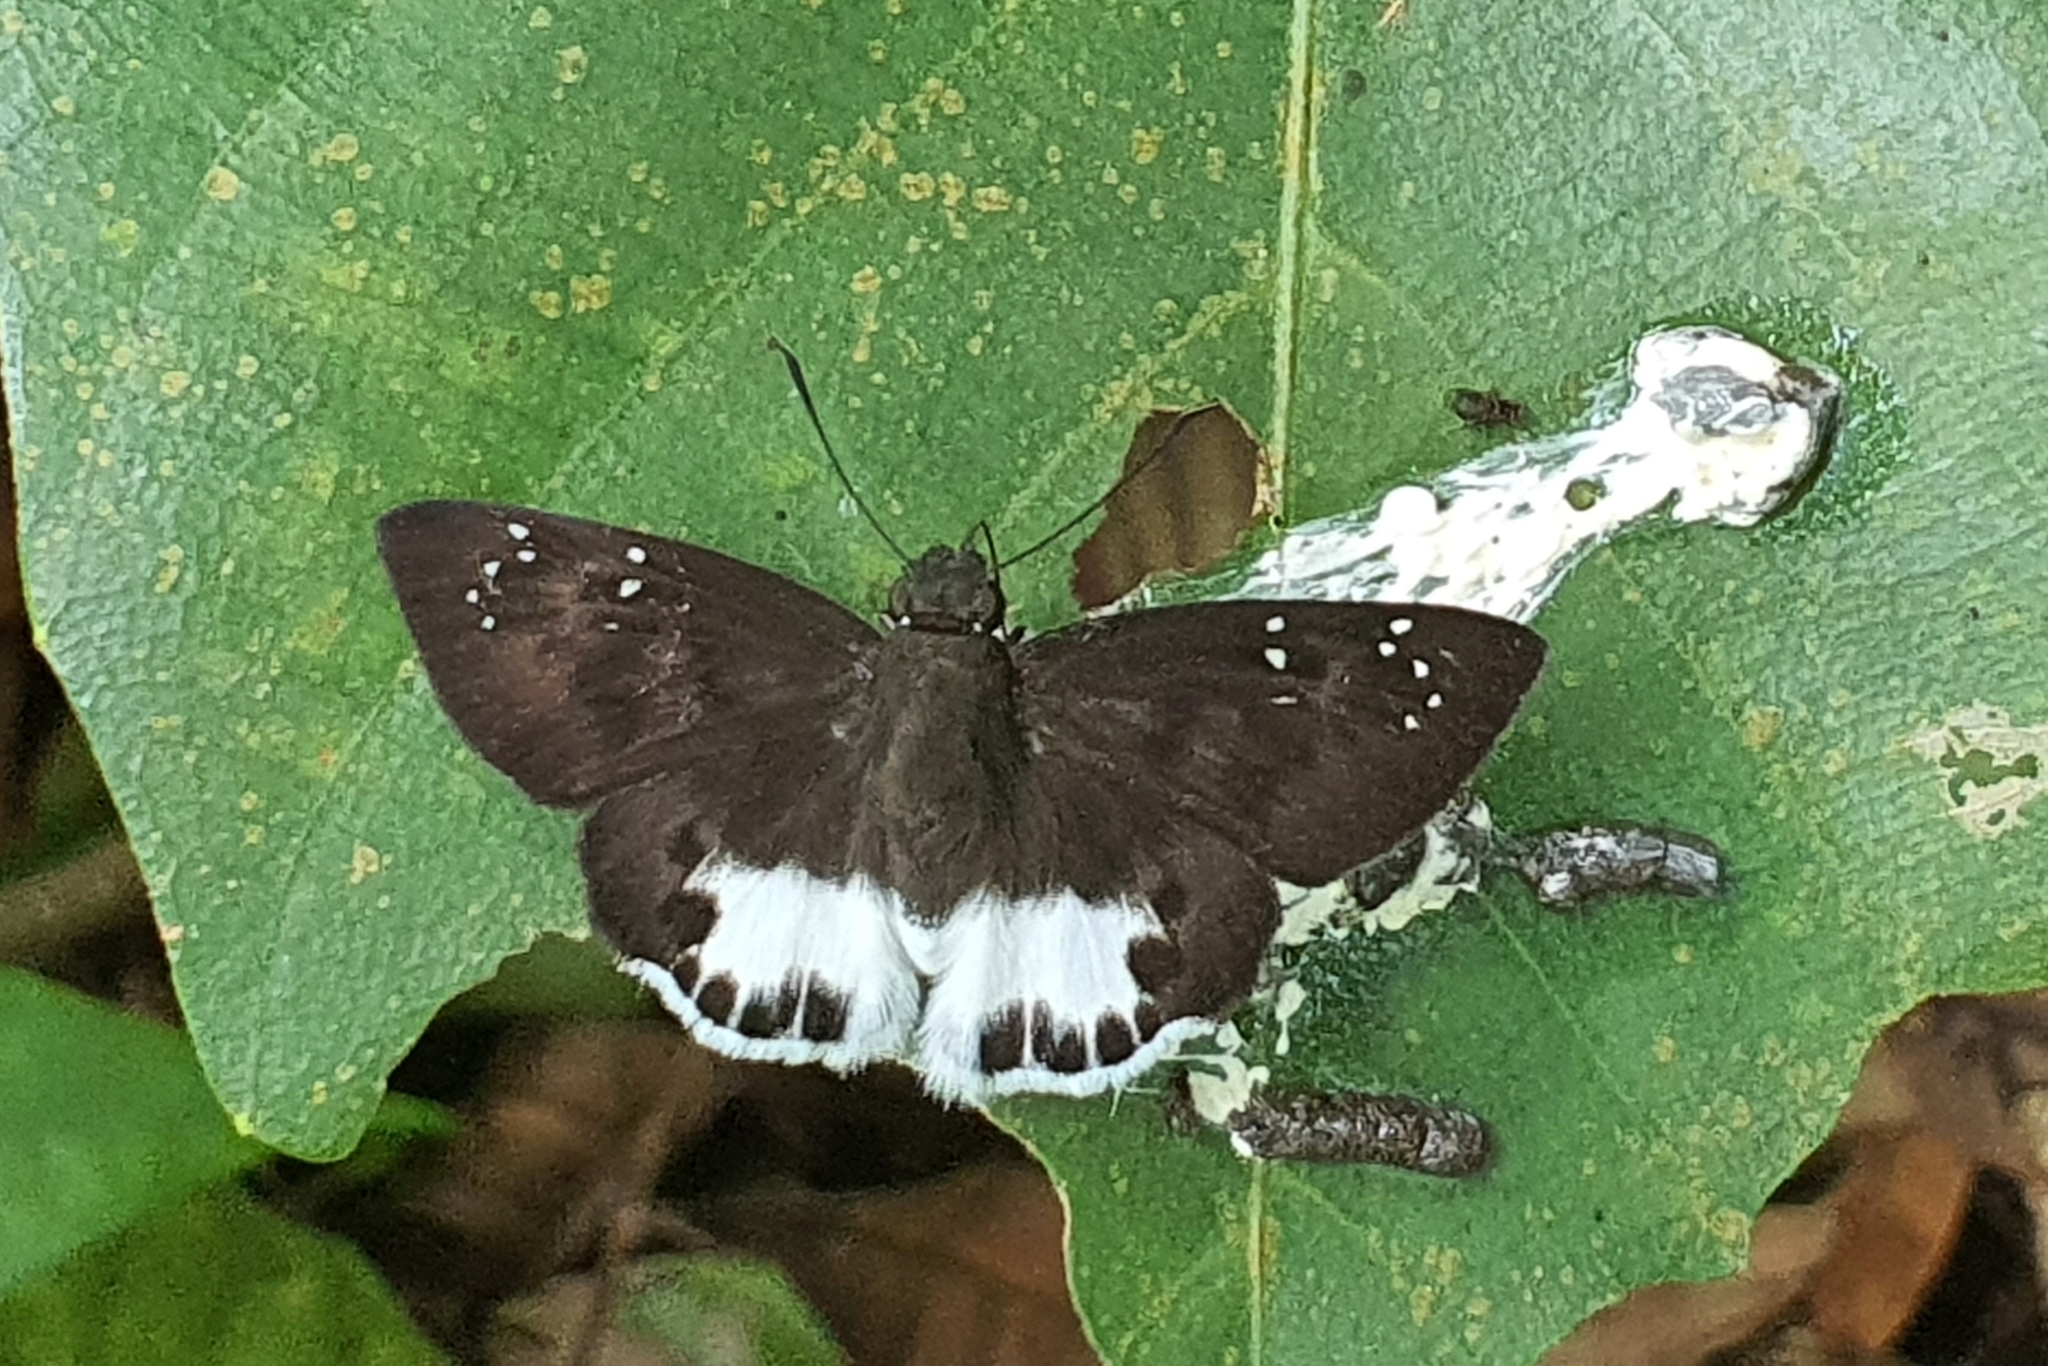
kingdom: Animalia
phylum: Arthropoda
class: Insecta
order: Lepidoptera
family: Hesperiidae
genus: Tagiades
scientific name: Tagiades litigiosa
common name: Water snow flat
